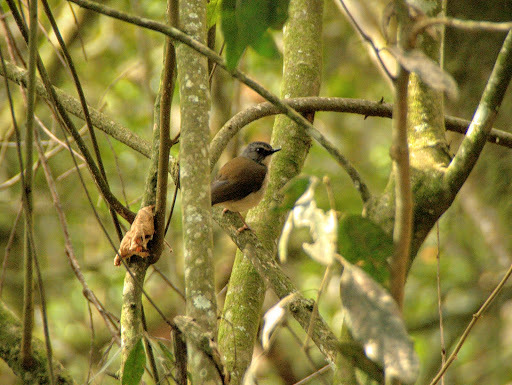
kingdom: Animalia
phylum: Chordata
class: Aves
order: Passeriformes
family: Muscicapidae
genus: Chamaetylas
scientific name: Chamaetylas poliocephala
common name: Brown-chested alethe
